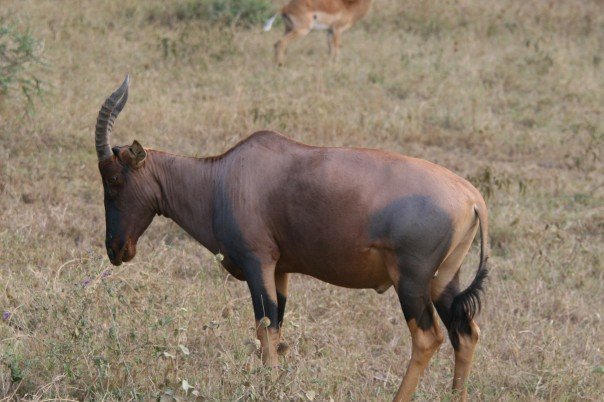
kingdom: Animalia
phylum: Chordata
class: Mammalia
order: Artiodactyla
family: Bovidae
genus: Damaliscus
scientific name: Damaliscus korrigum
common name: Topi
